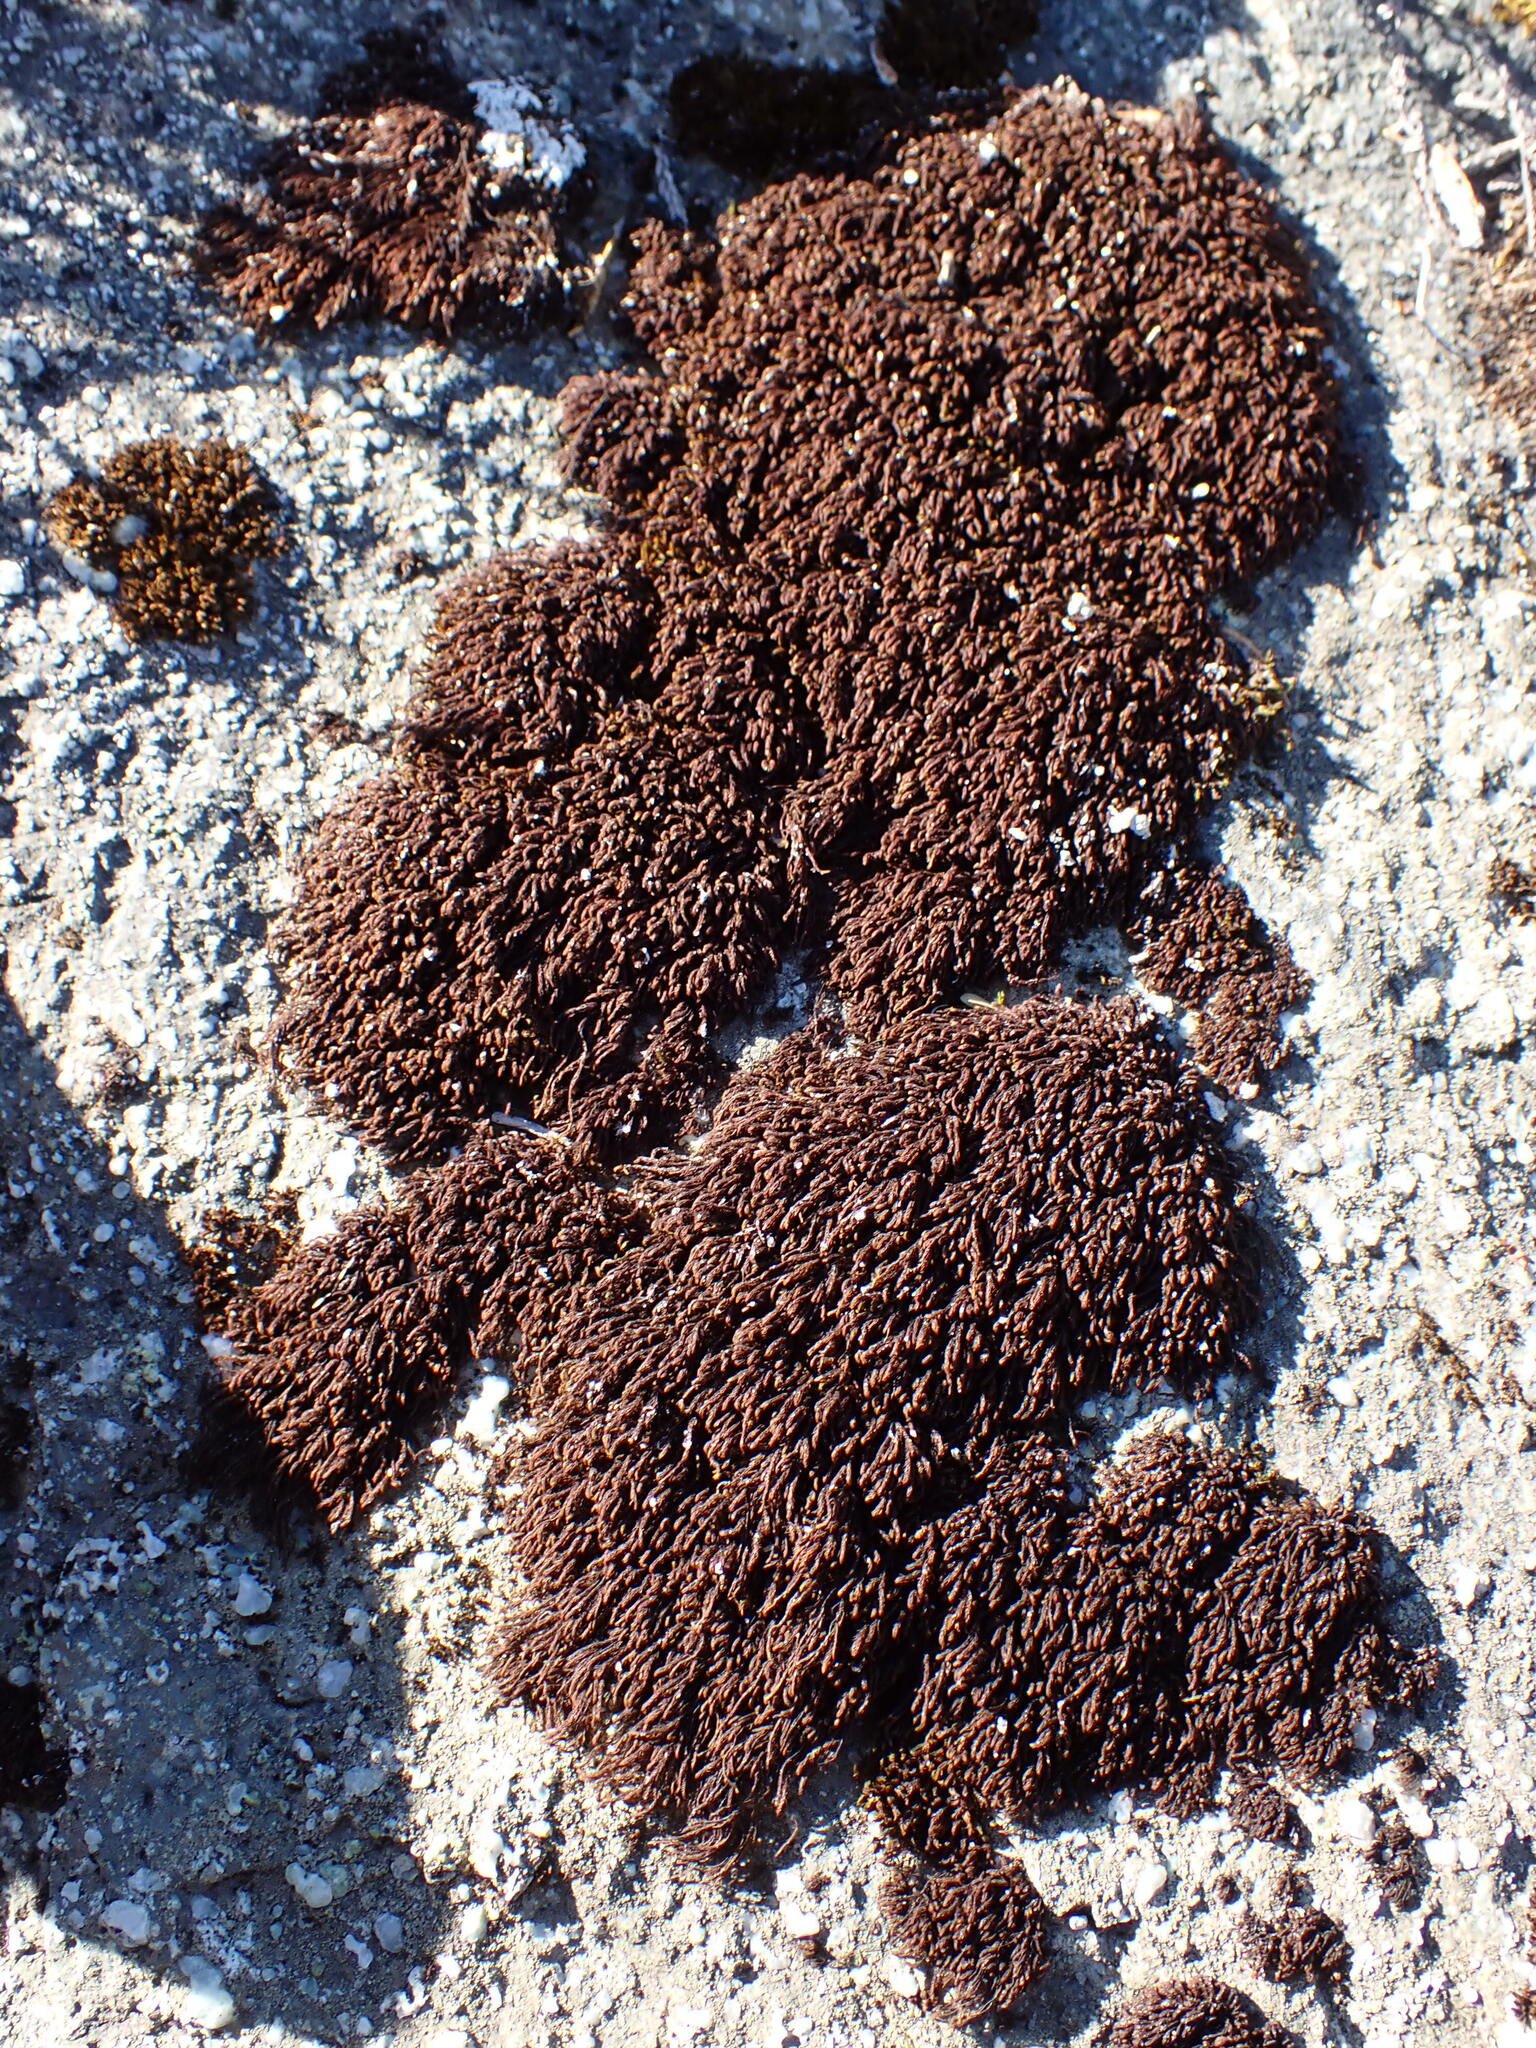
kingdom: Plantae
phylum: Bryophyta
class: Andreaeopsida
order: Andreaeales
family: Andreaeaceae
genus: Andreaea
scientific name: Andreaea nivalis
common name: Snow rock moss
